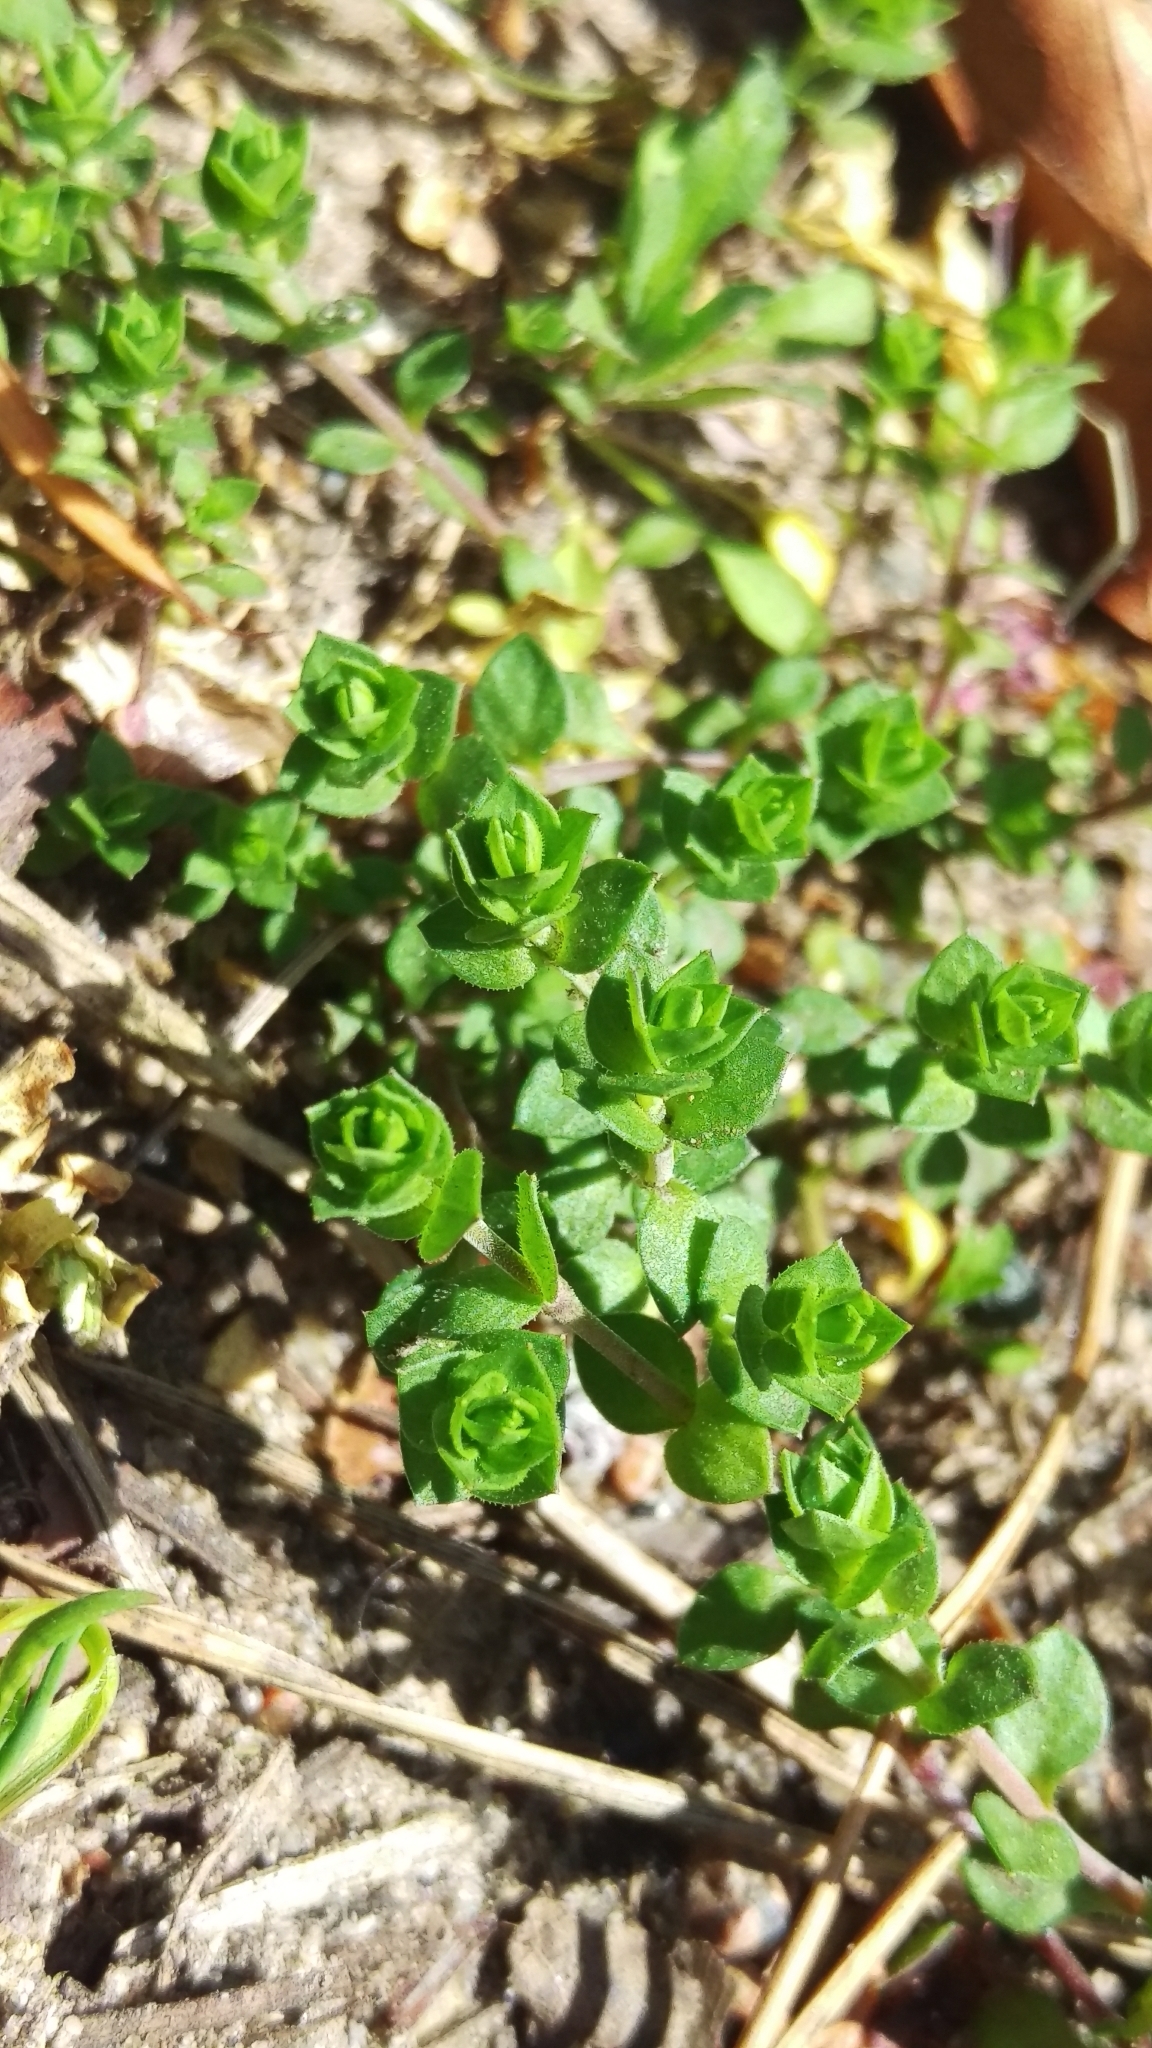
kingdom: Plantae
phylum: Tracheophyta
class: Magnoliopsida
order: Caryophyllales
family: Caryophyllaceae
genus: Arenaria
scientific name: Arenaria serpyllifolia
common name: Thyme-leaved sandwort
